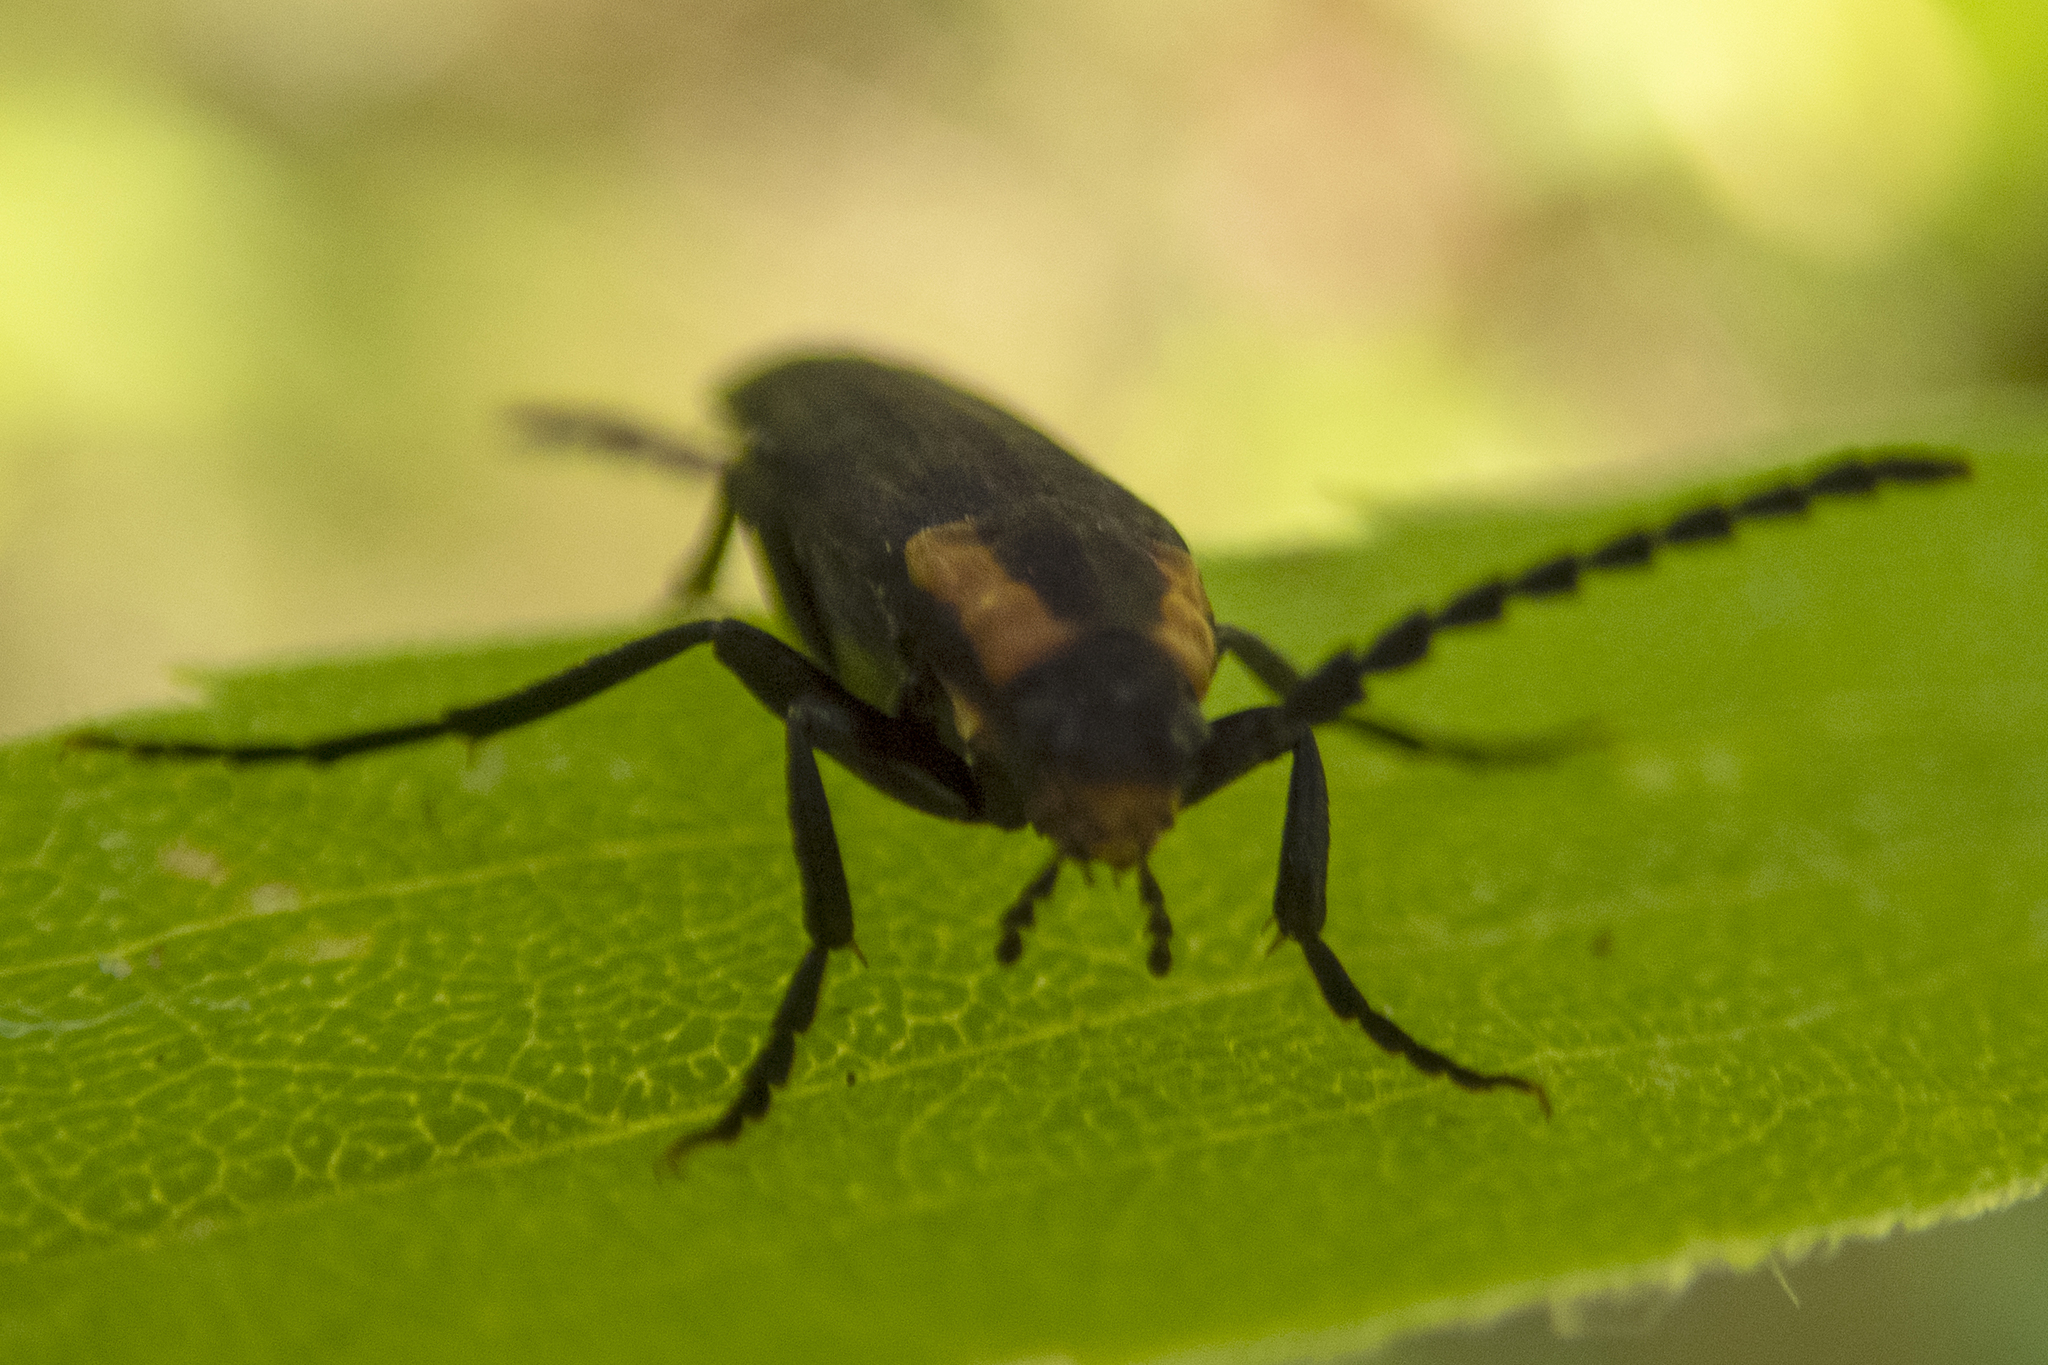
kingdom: Animalia
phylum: Arthropoda
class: Insecta
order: Coleoptera
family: Melandryidae
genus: Amblyctis
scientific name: Amblyctis praeses
